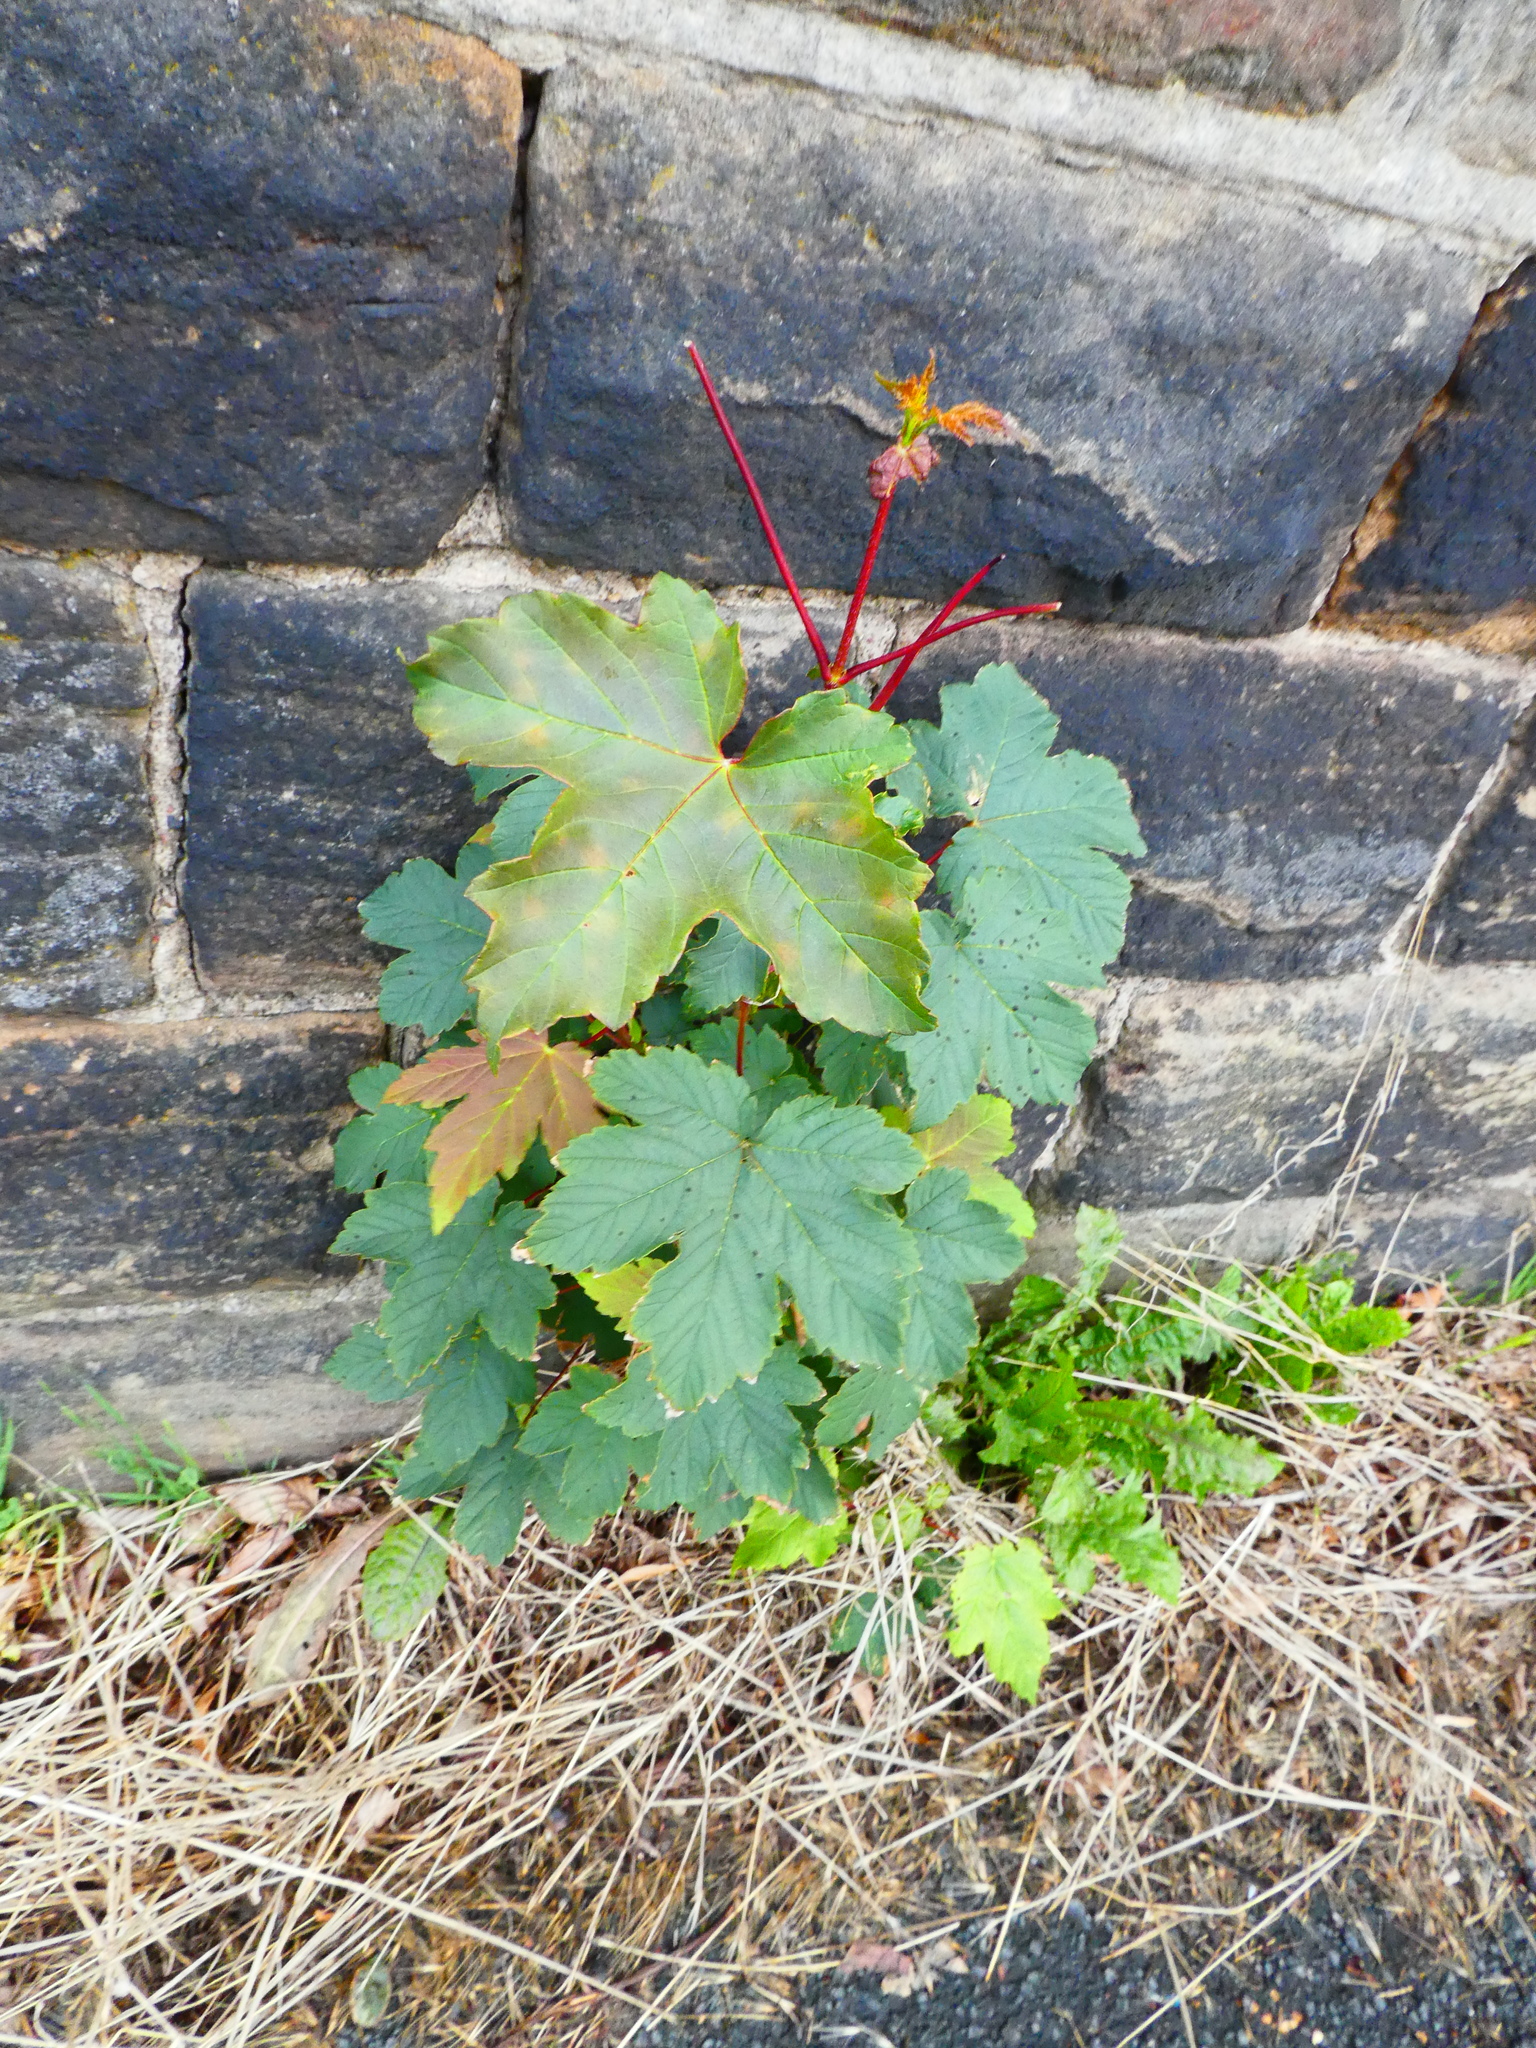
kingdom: Plantae
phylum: Tracheophyta
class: Magnoliopsida
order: Sapindales
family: Sapindaceae
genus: Acer
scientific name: Acer pseudoplatanus
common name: Sycamore
